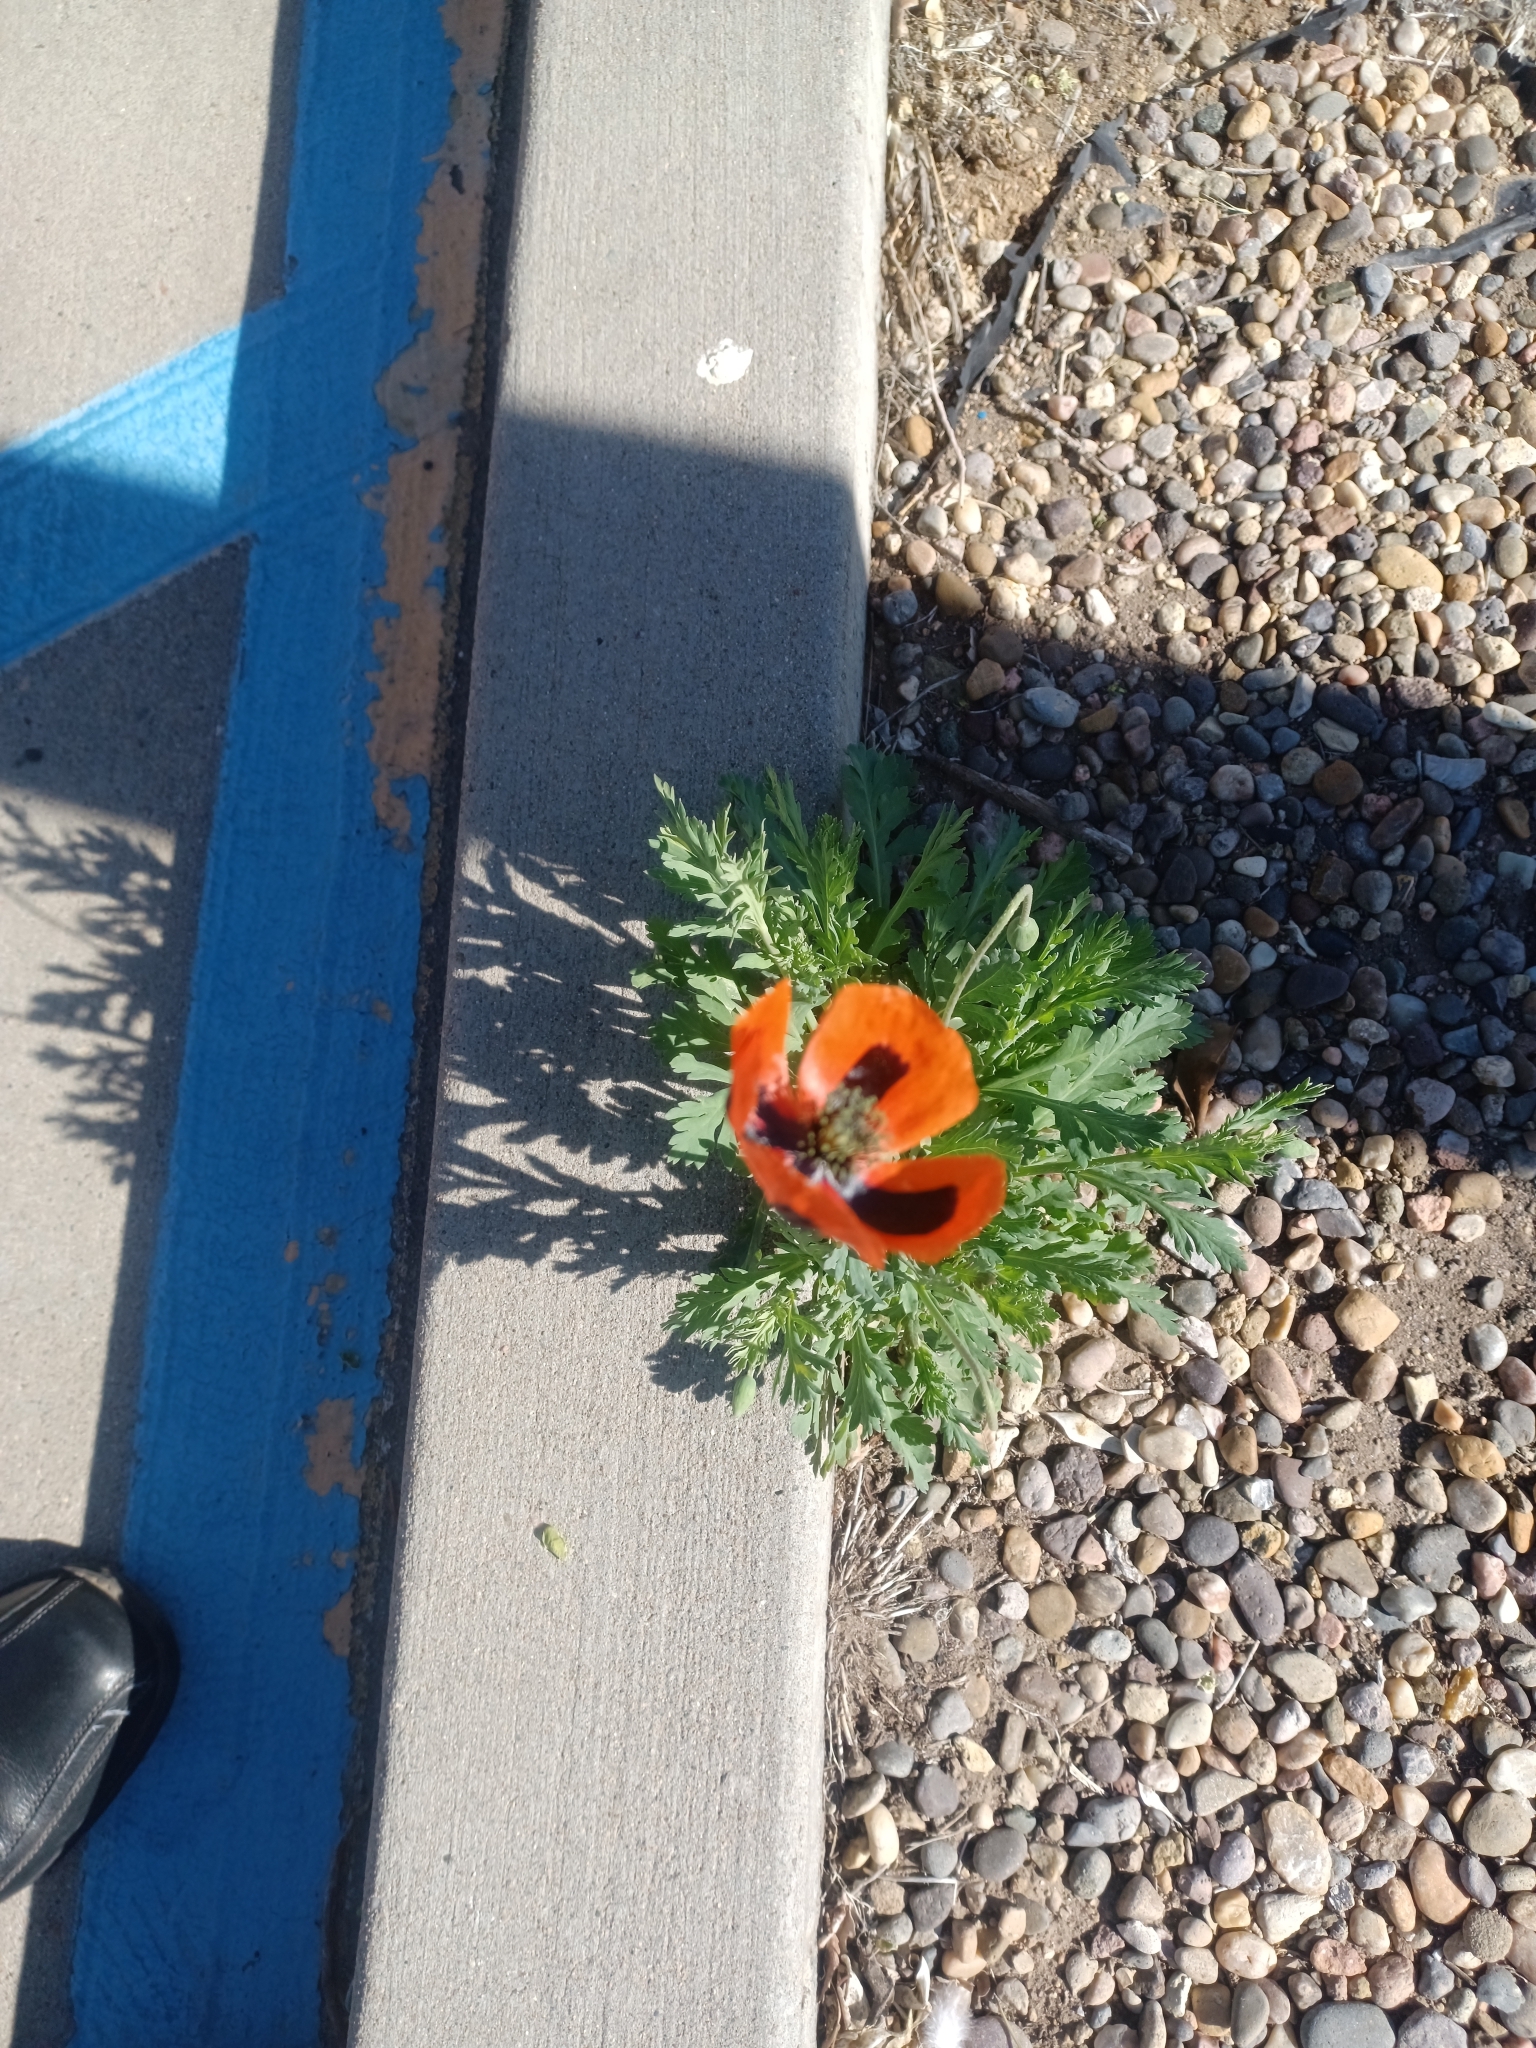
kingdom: Plantae
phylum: Tracheophyta
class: Magnoliopsida
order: Ranunculales
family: Papaveraceae
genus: Papaver
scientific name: Papaver dubium
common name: Long-headed poppy
